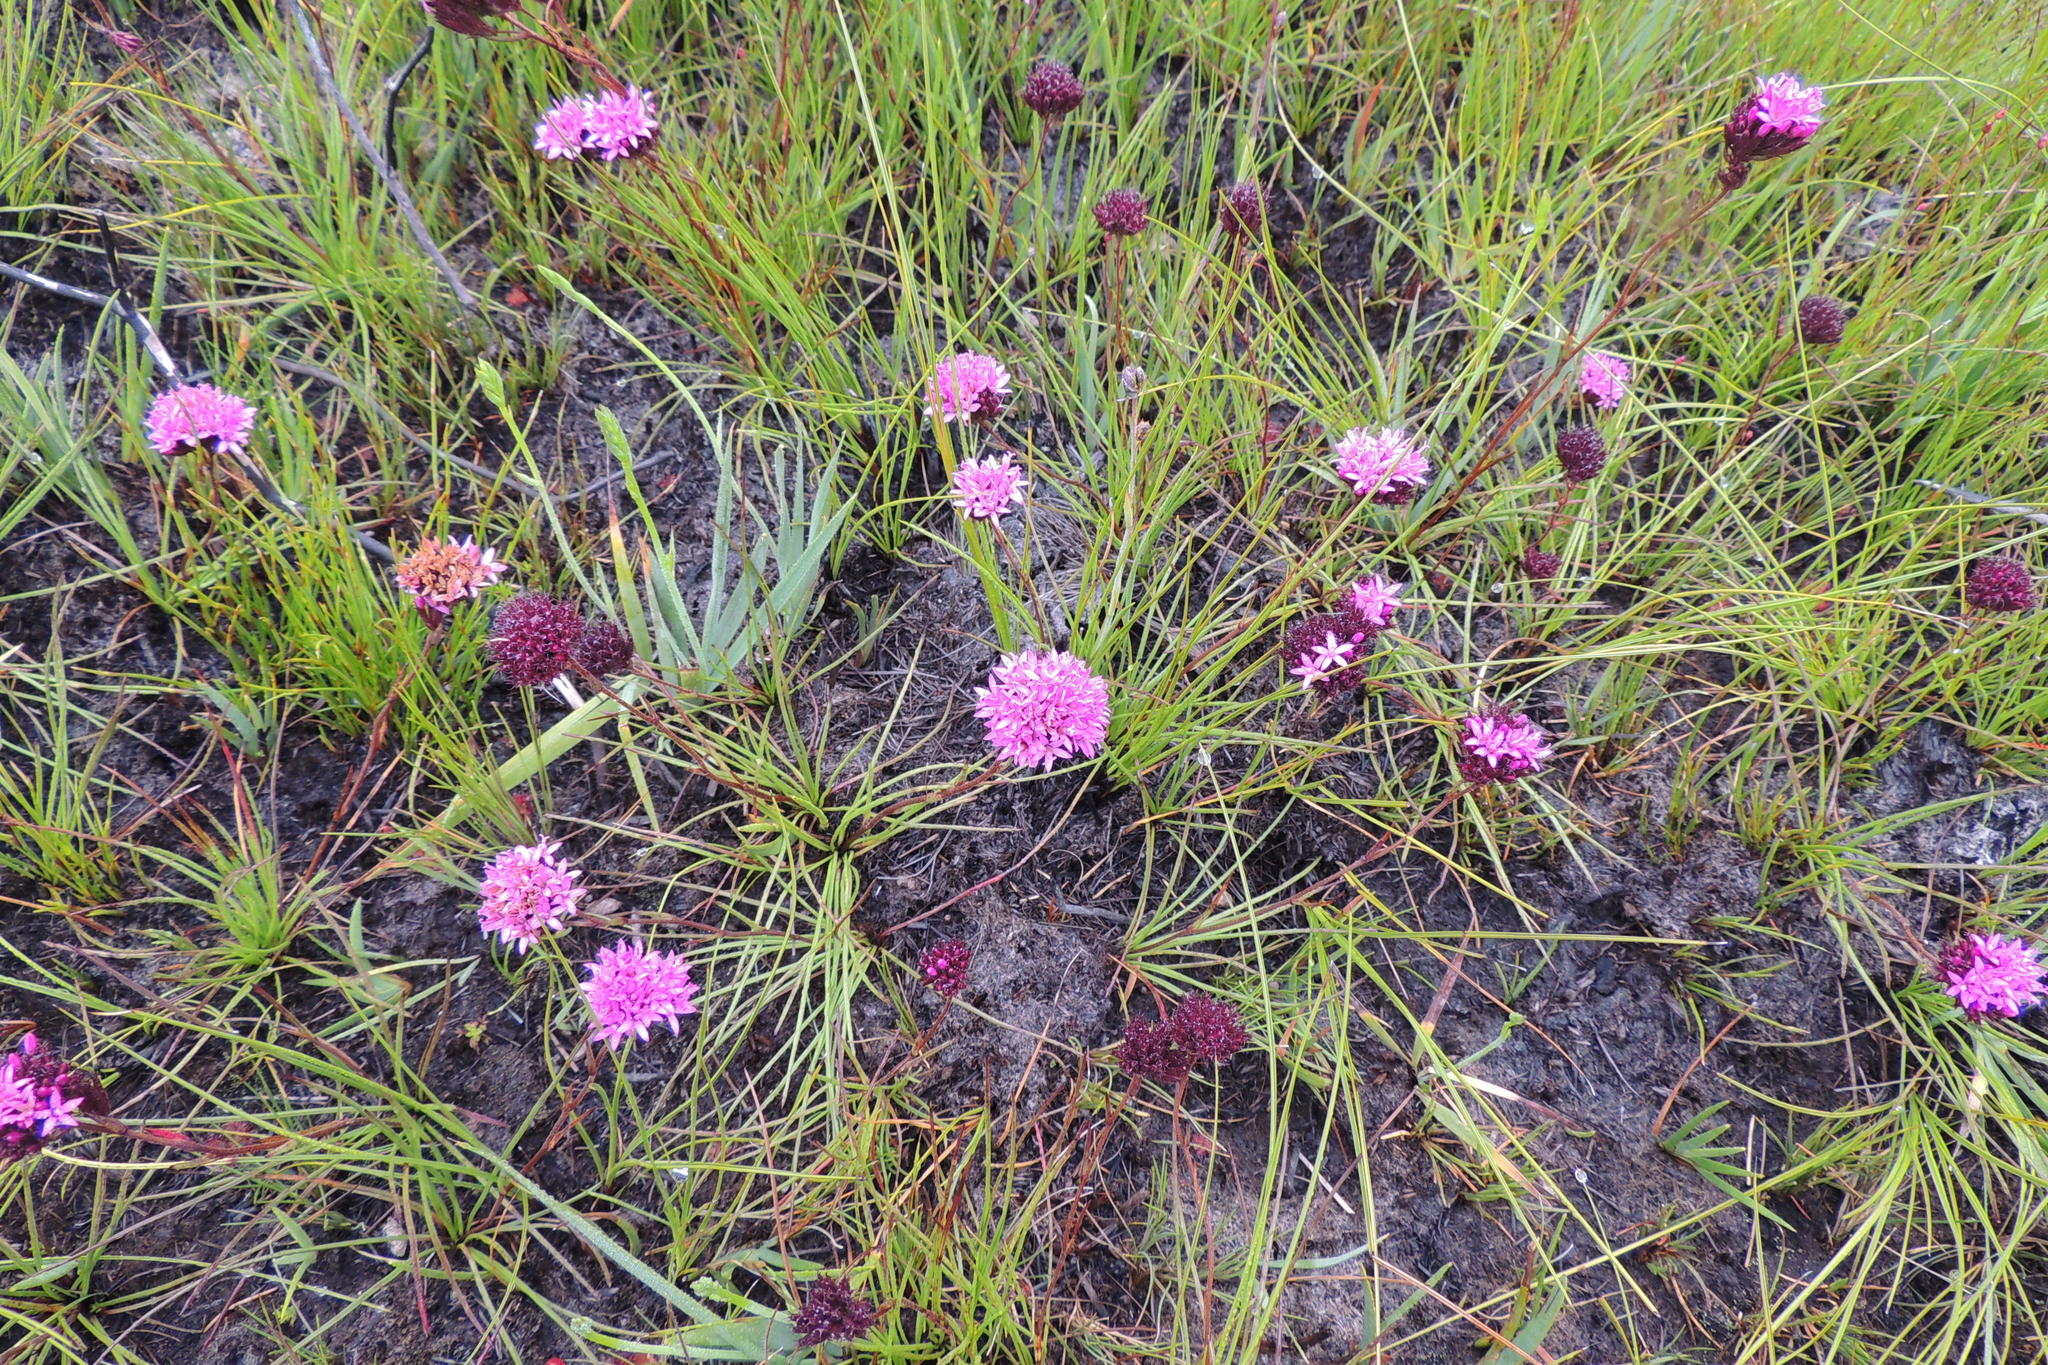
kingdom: Plantae
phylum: Tracheophyta
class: Magnoliopsida
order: Asterales
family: Asteraceae
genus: Corymbium
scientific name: Corymbium africanum
